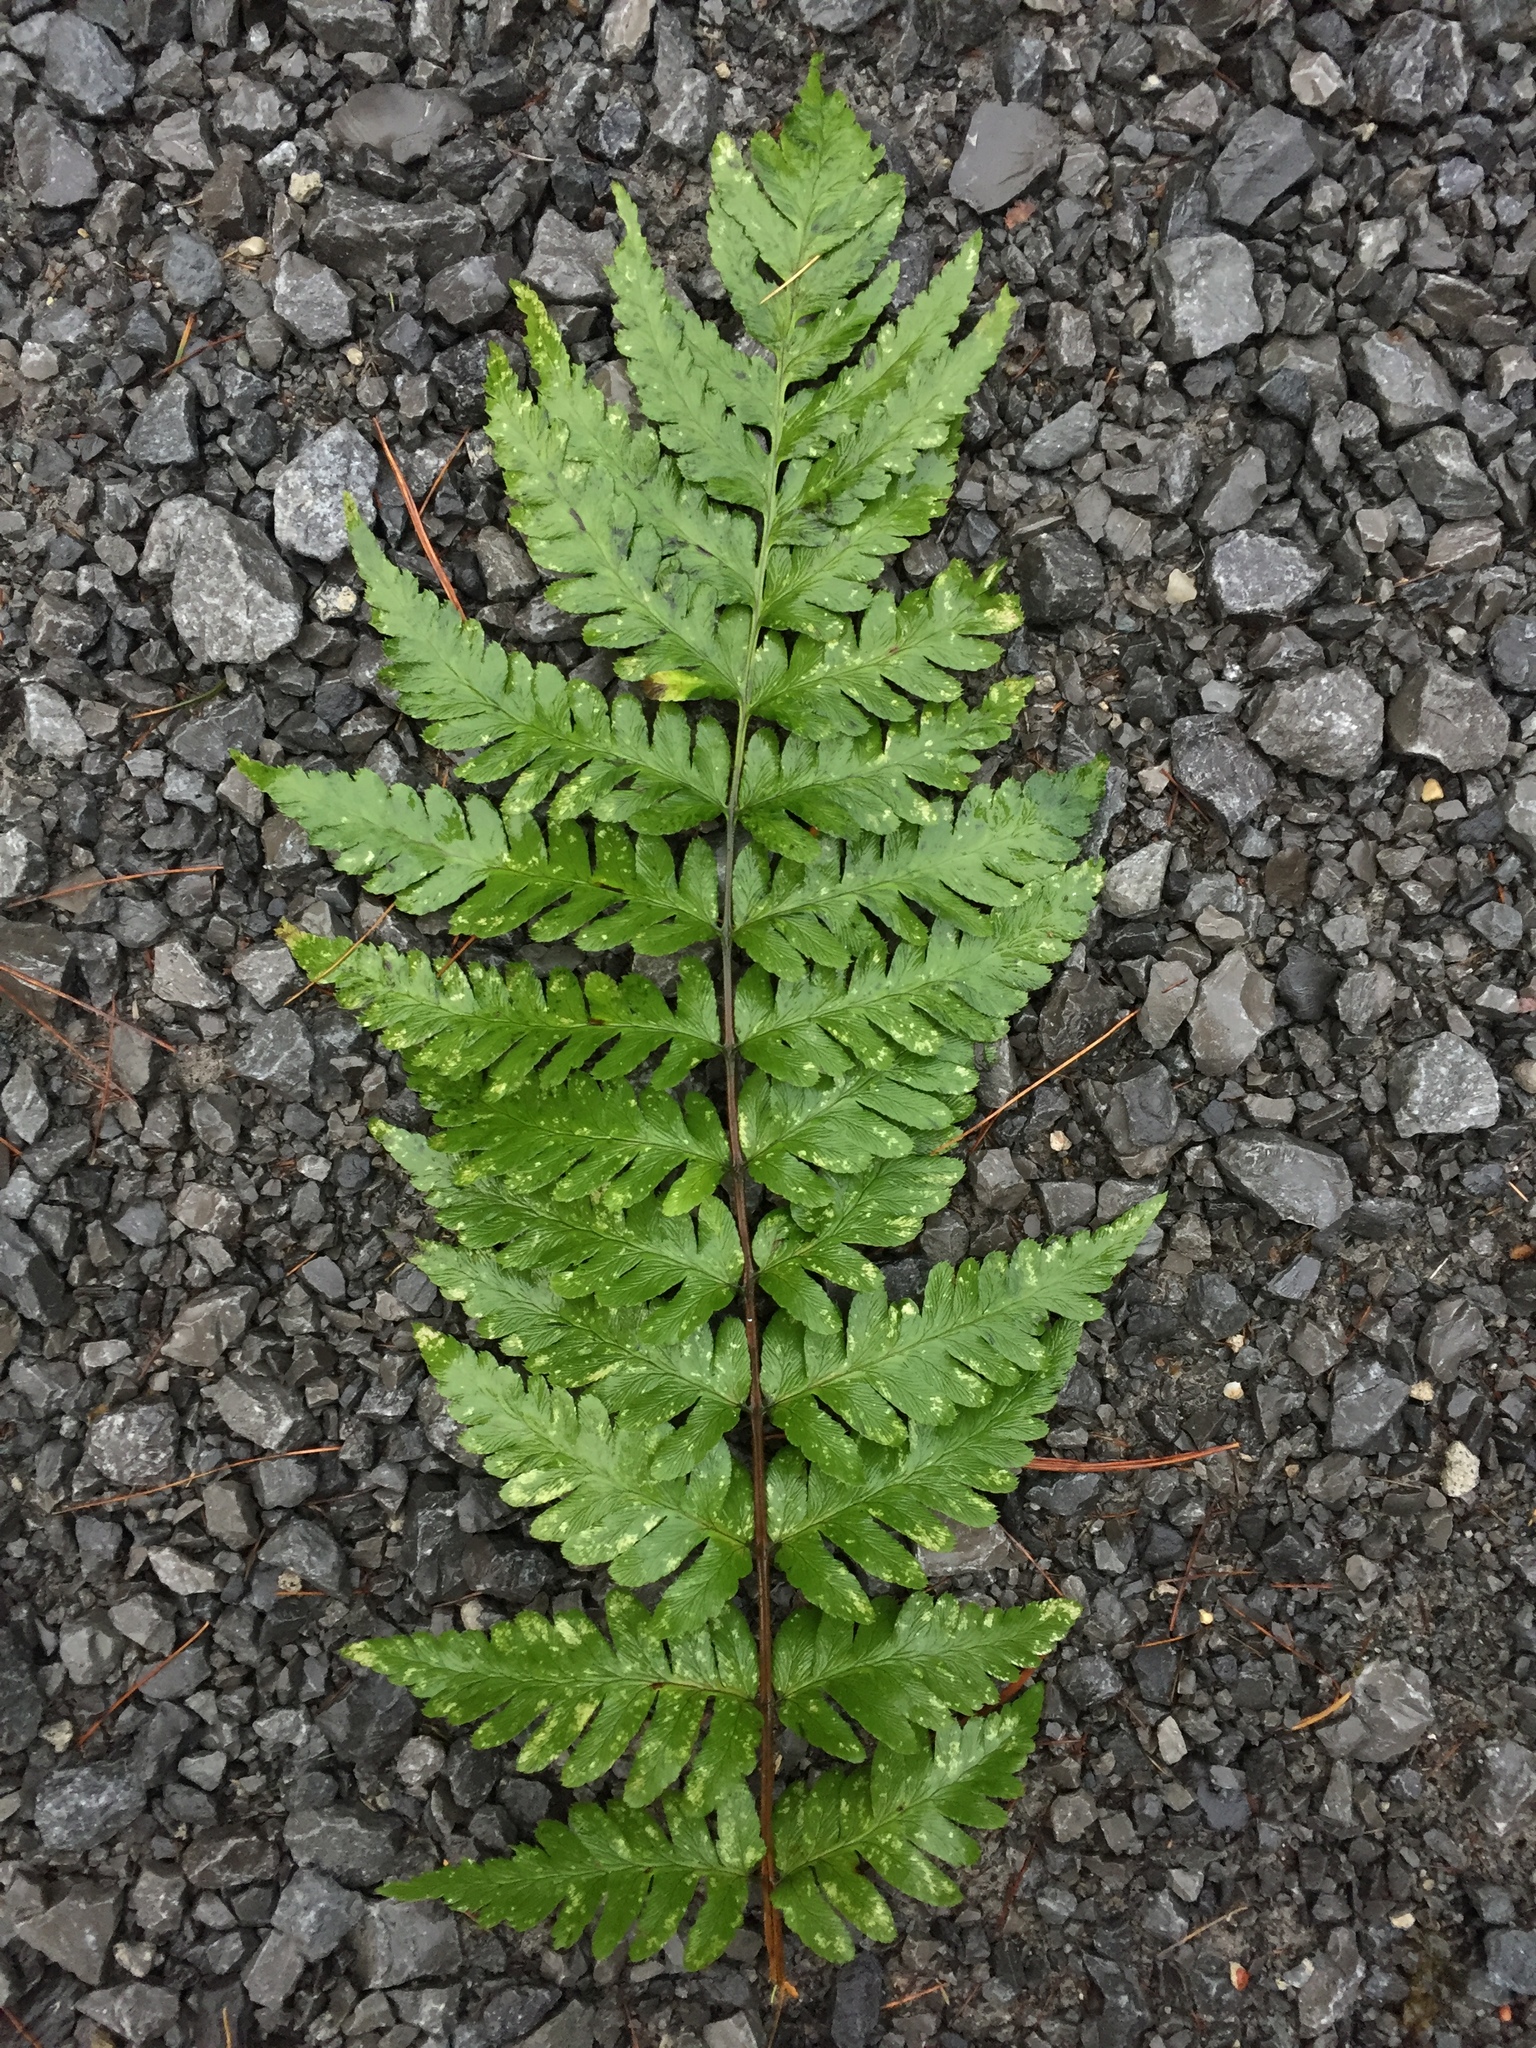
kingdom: Plantae
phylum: Tracheophyta
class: Polypodiopsida
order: Polypodiales
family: Dryopteridaceae
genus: Dryopteris
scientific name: Dryopteris cristata
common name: Crested wood fern
